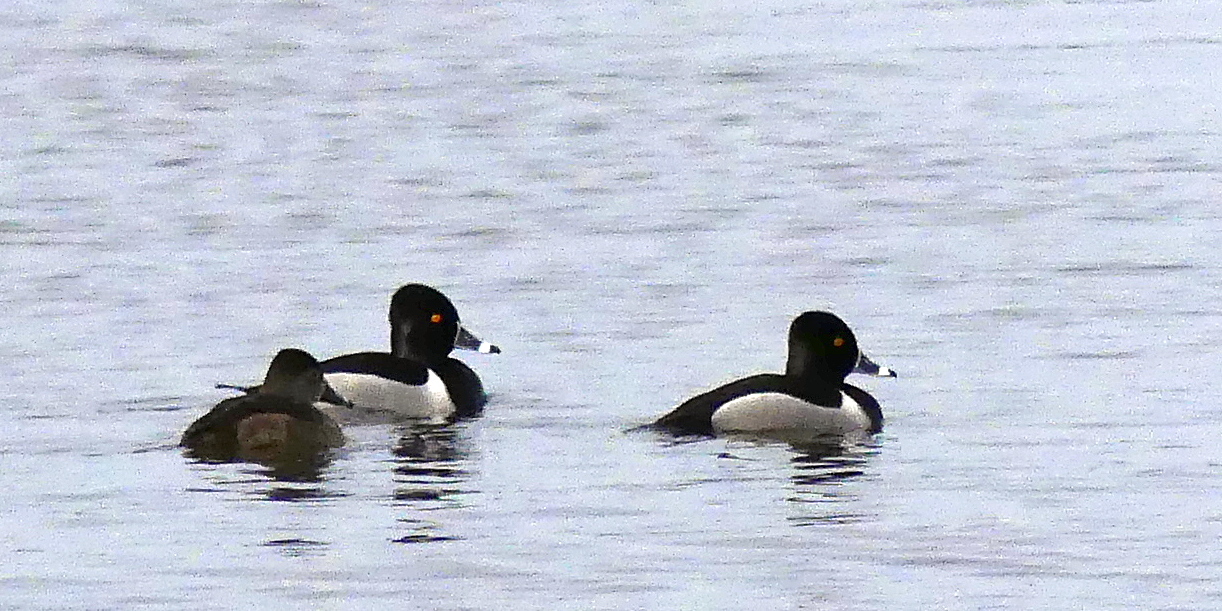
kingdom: Animalia
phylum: Chordata
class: Aves
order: Anseriformes
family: Anatidae
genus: Aythya
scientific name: Aythya collaris
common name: Ring-necked duck
